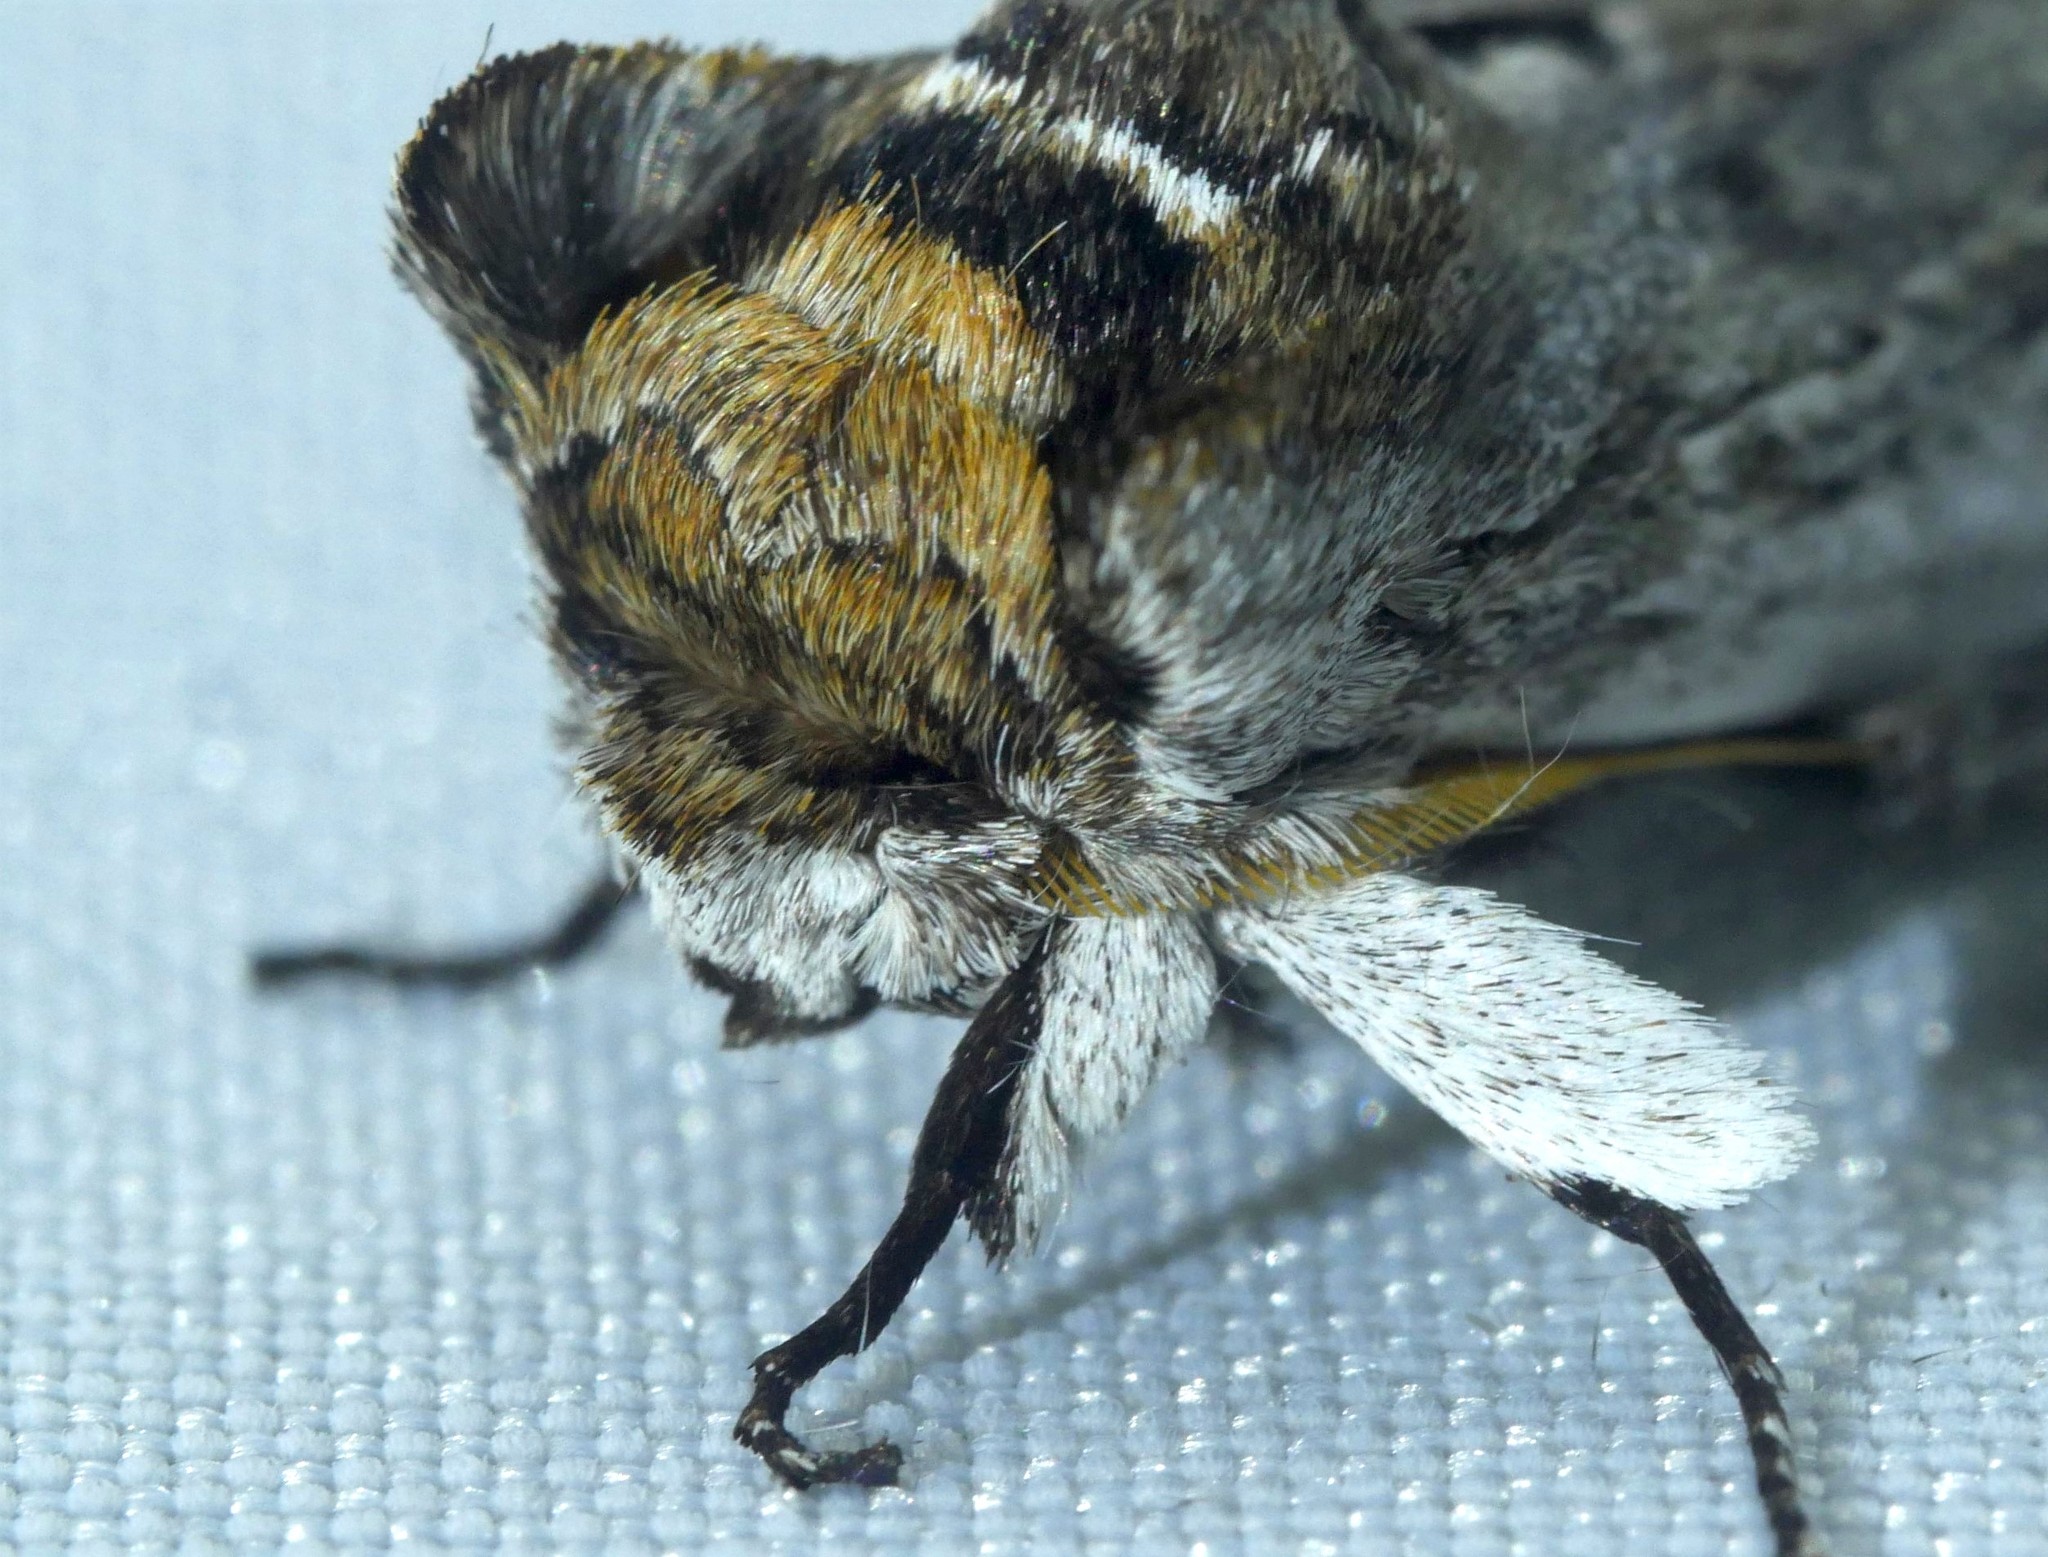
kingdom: Animalia
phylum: Arthropoda
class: Insecta
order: Lepidoptera
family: Notodontidae
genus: Lirimiris
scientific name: Lirimiris auriflua
